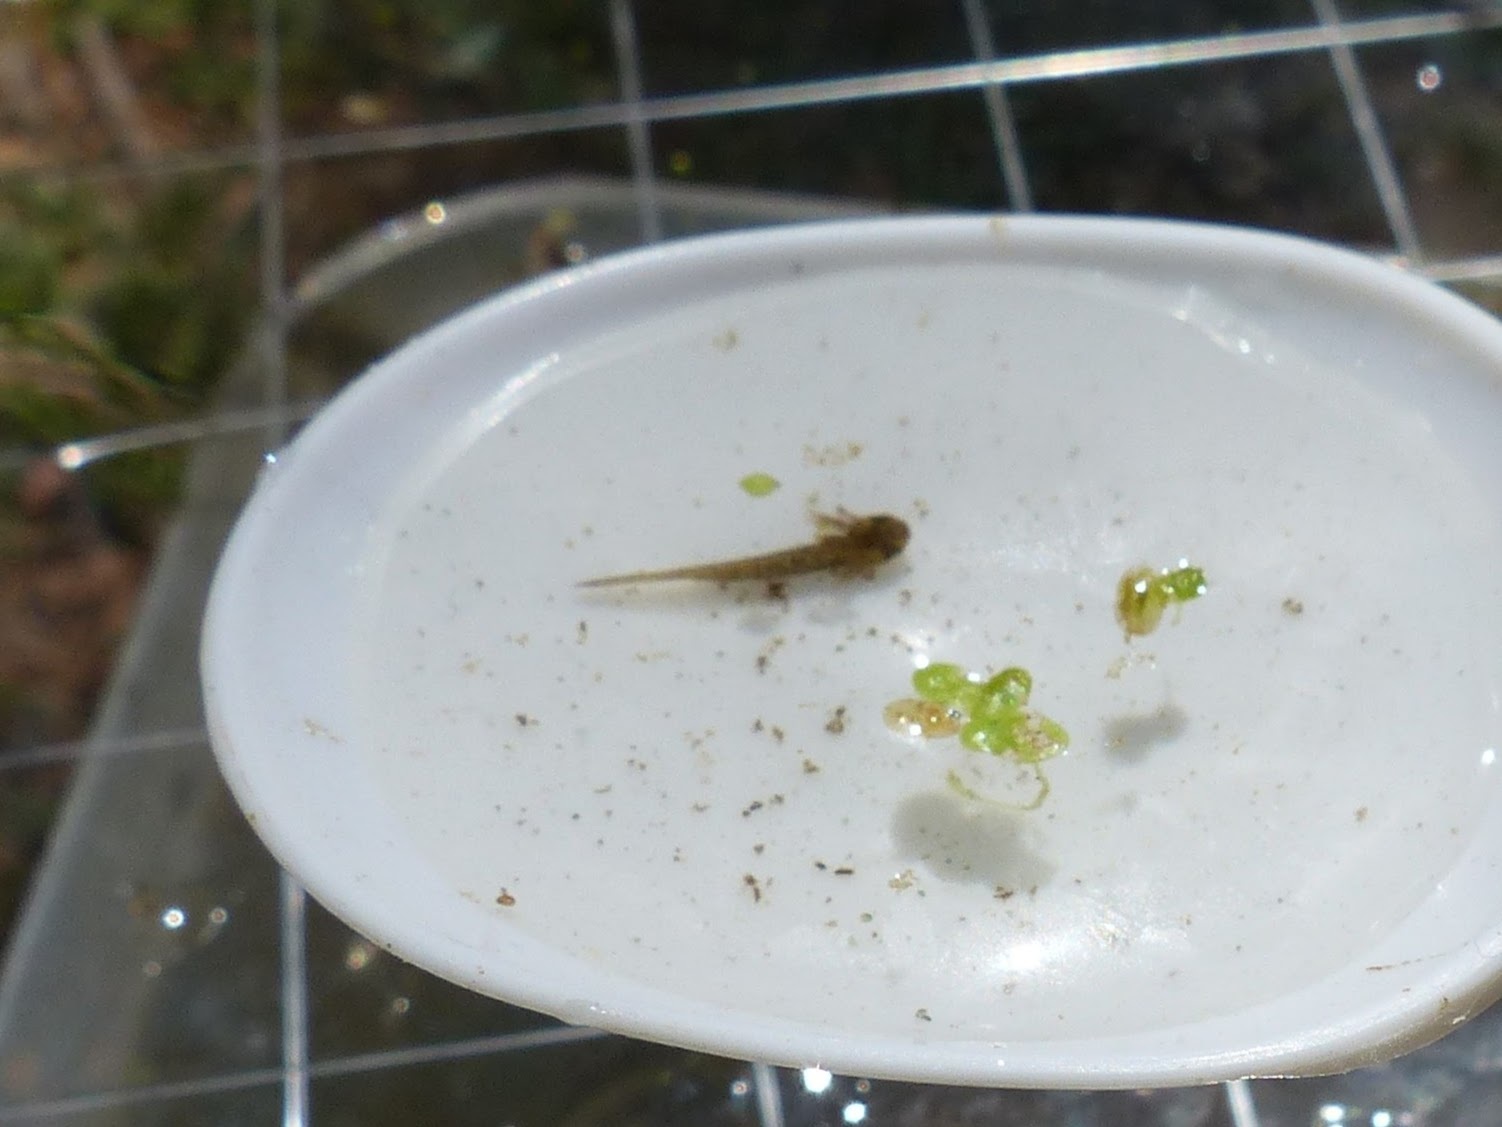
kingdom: Animalia
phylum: Chordata
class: Amphibia
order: Caudata
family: Ambystomatidae
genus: Ambystoma
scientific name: Ambystoma maculatum
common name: Spotted salamander
